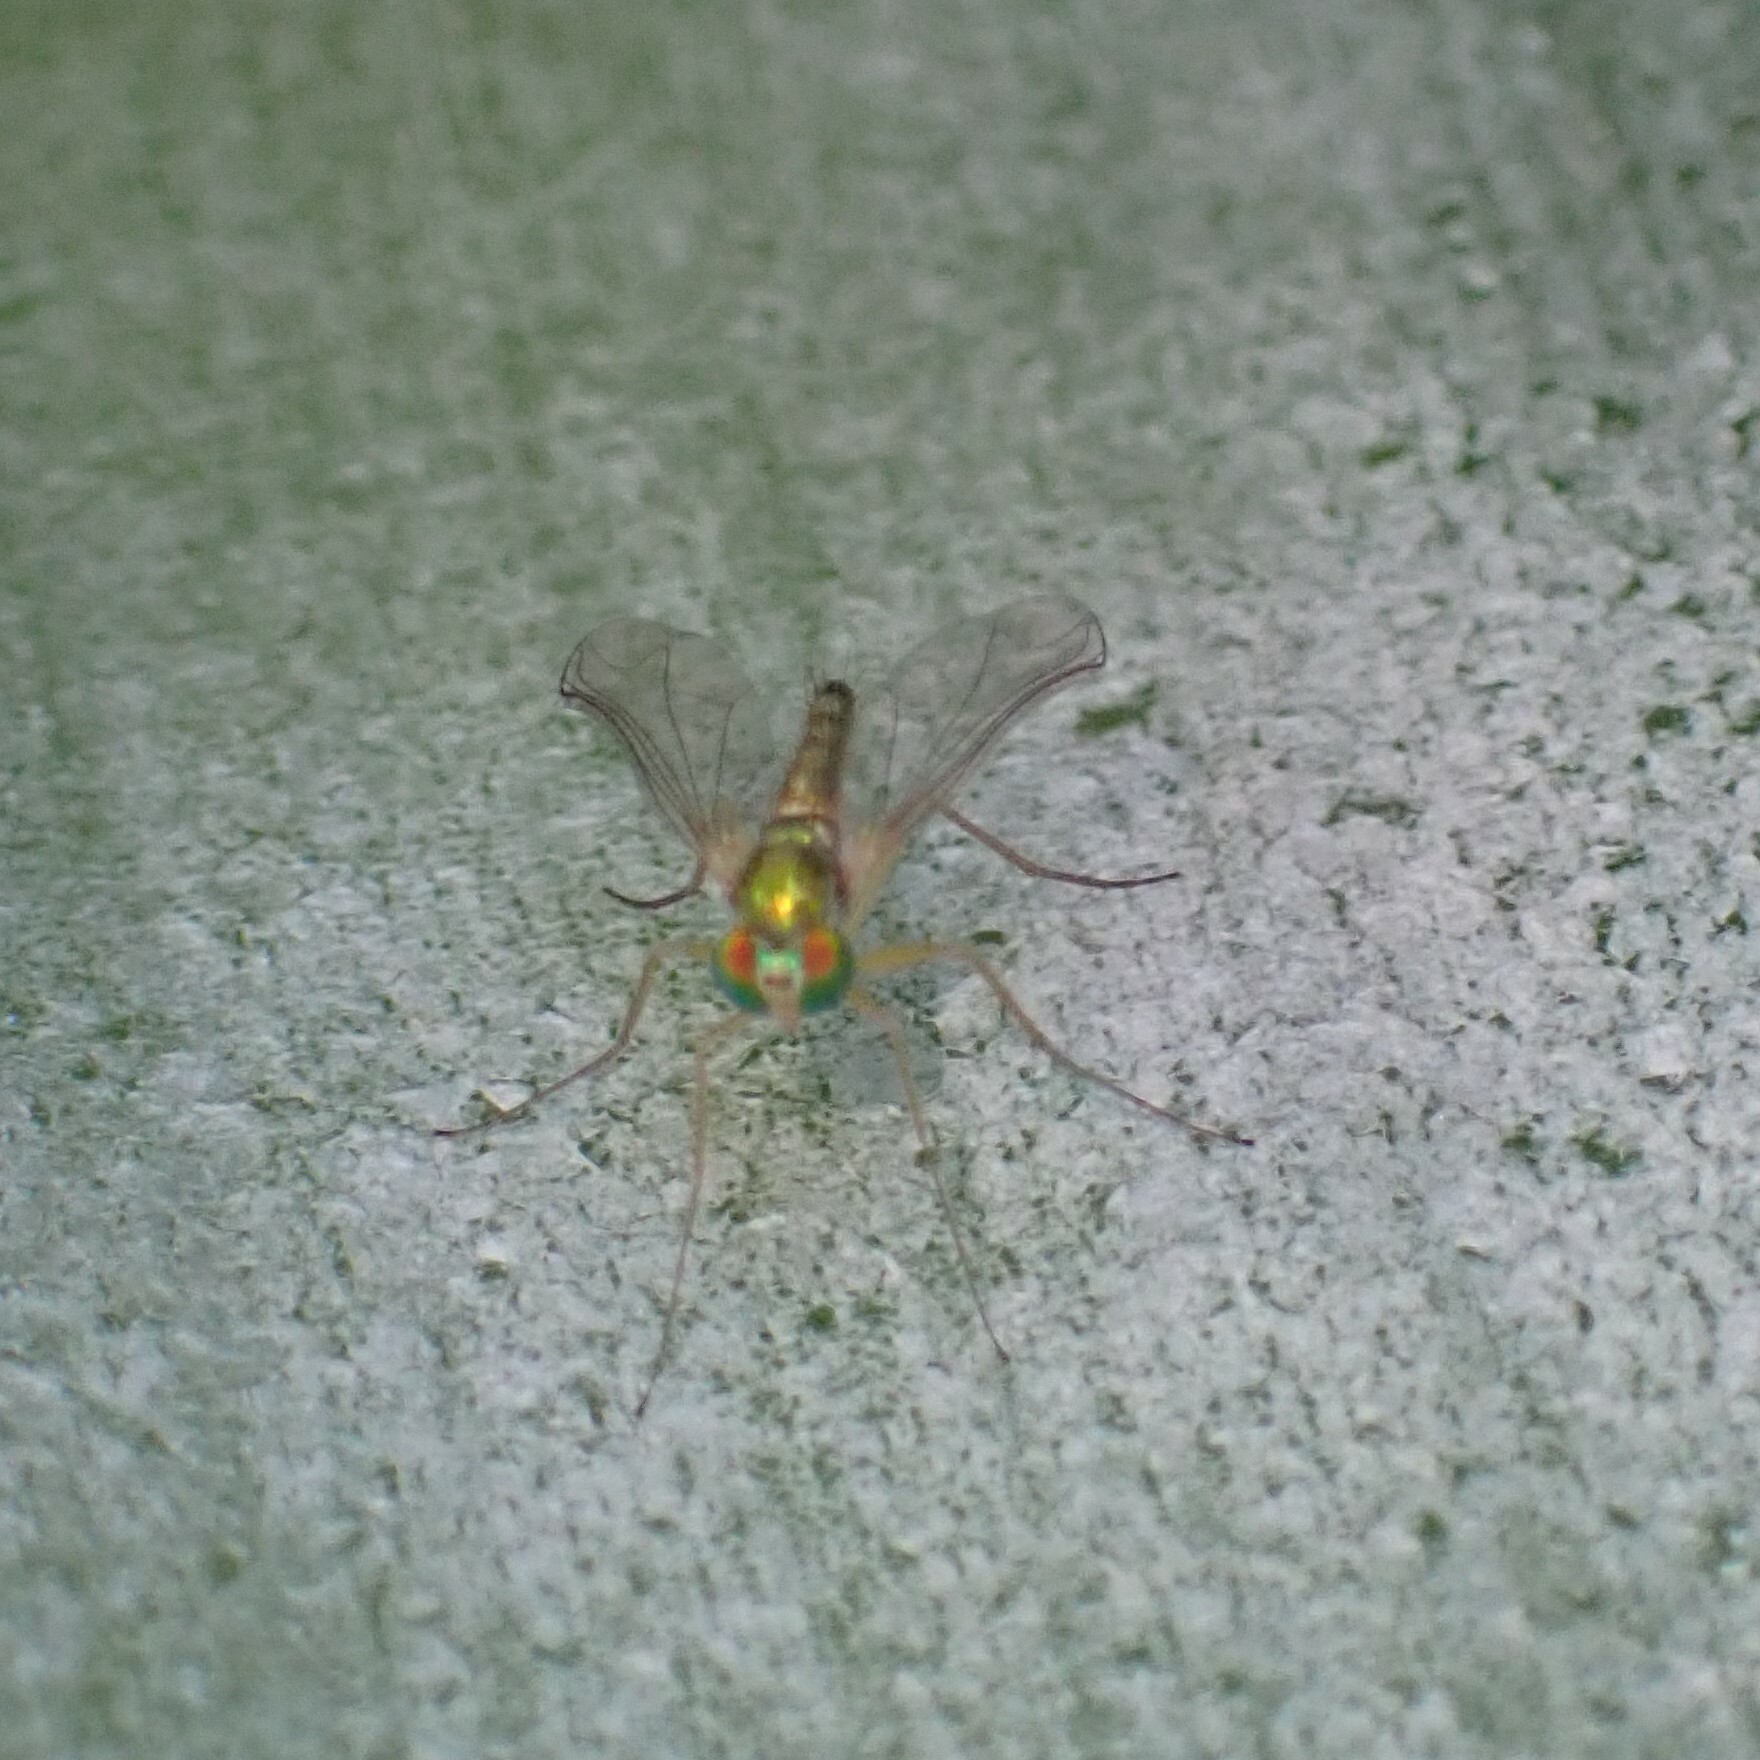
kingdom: Animalia
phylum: Arthropoda
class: Insecta
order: Diptera
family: Dolichopodidae
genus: Amblypsilopus
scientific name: Amblypsilopus psittacinus
